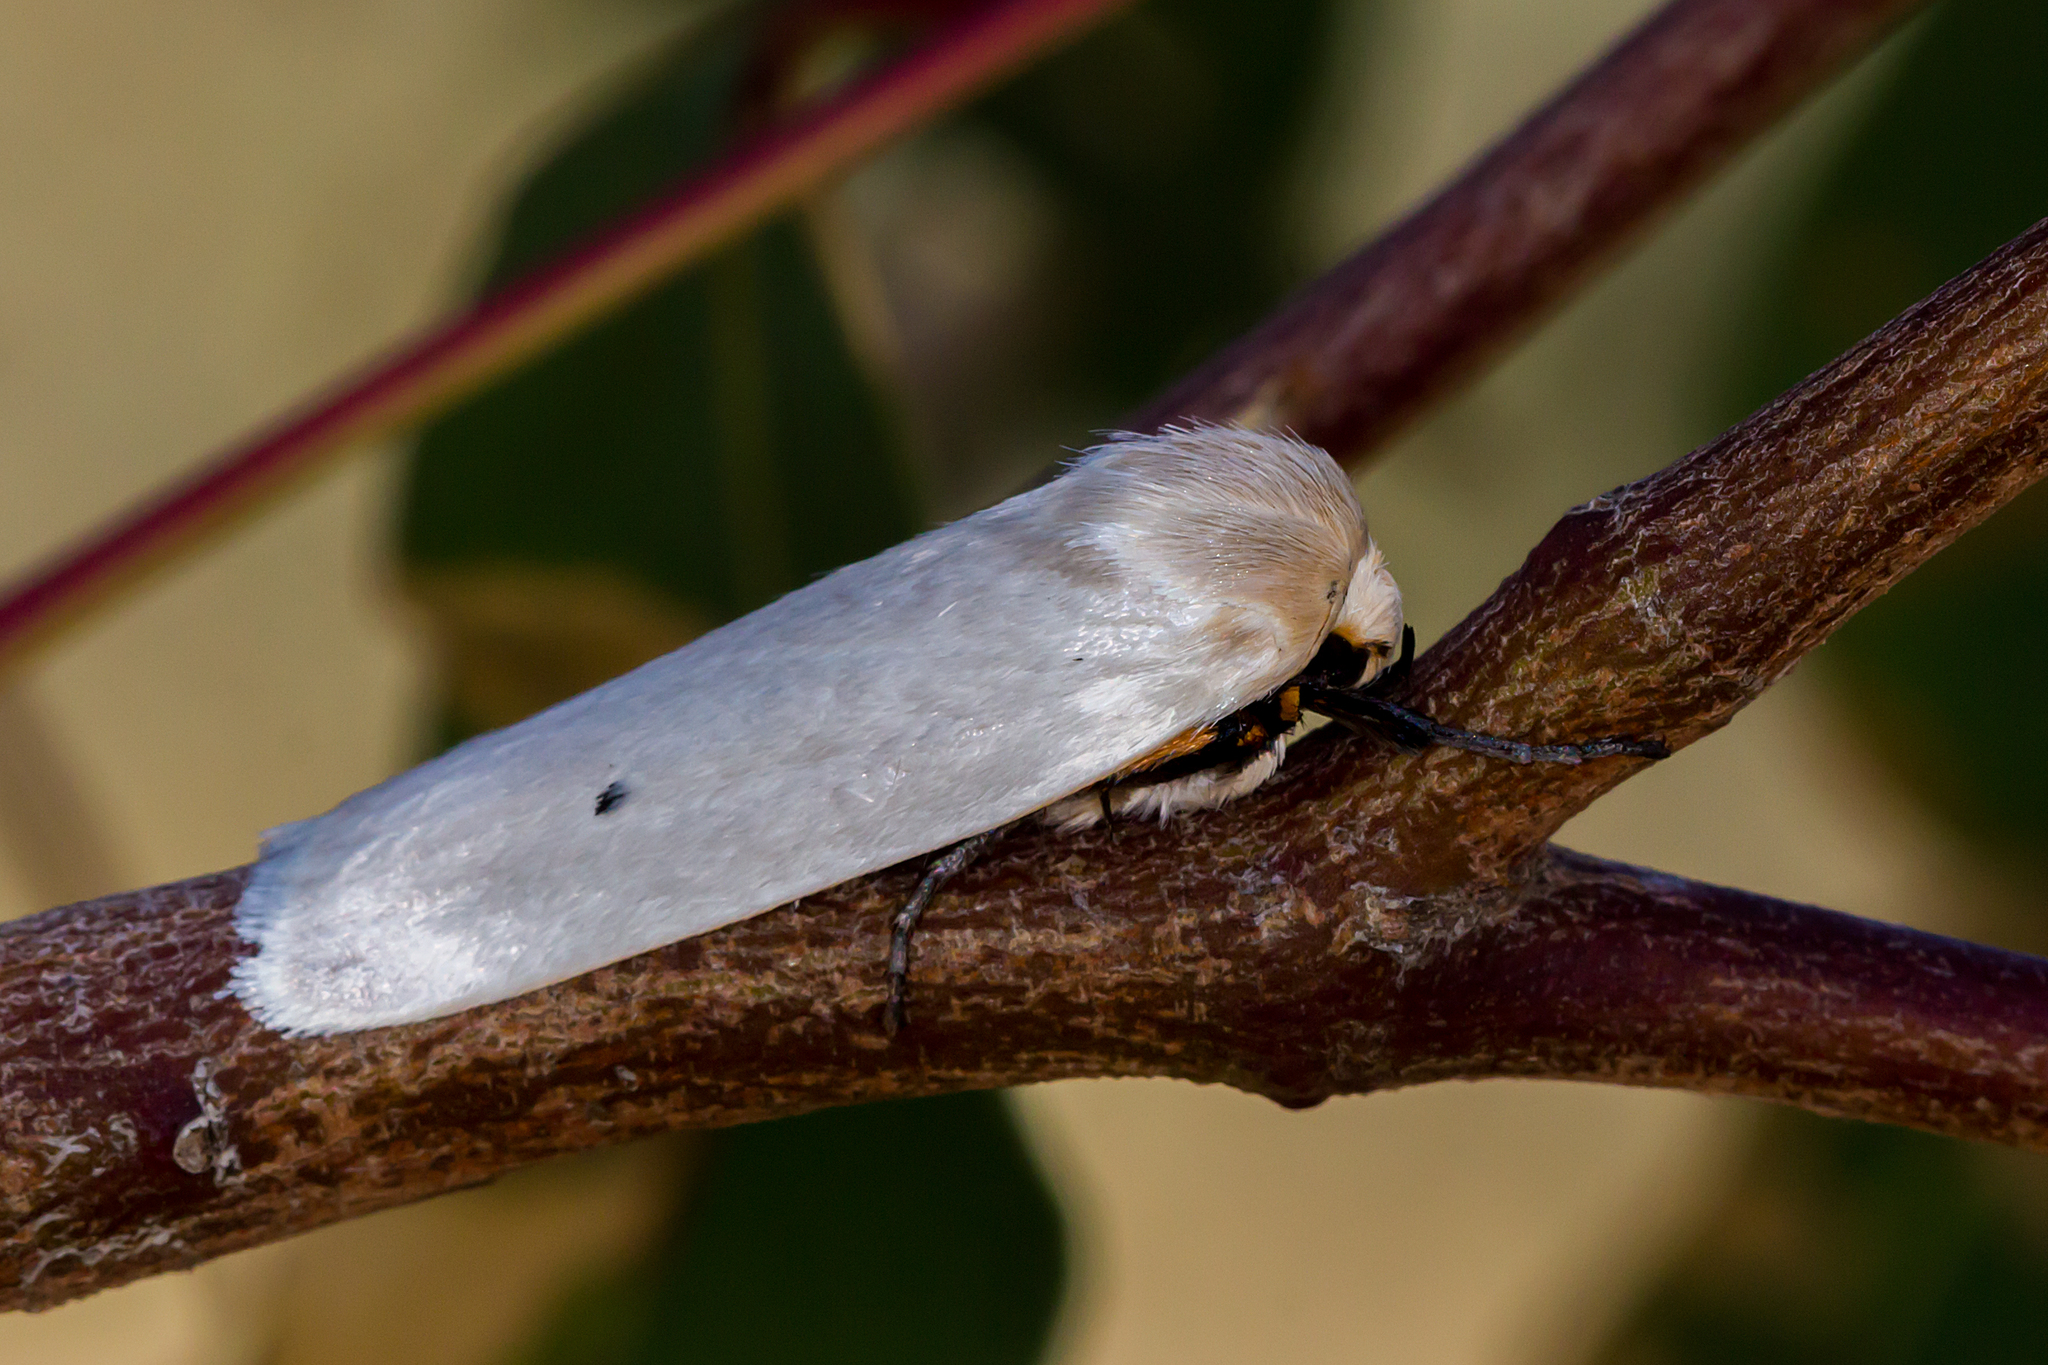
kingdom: Animalia
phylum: Arthropoda
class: Insecta
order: Lepidoptera
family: Xyloryctidae
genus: Maroga
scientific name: Maroga melanostigma
